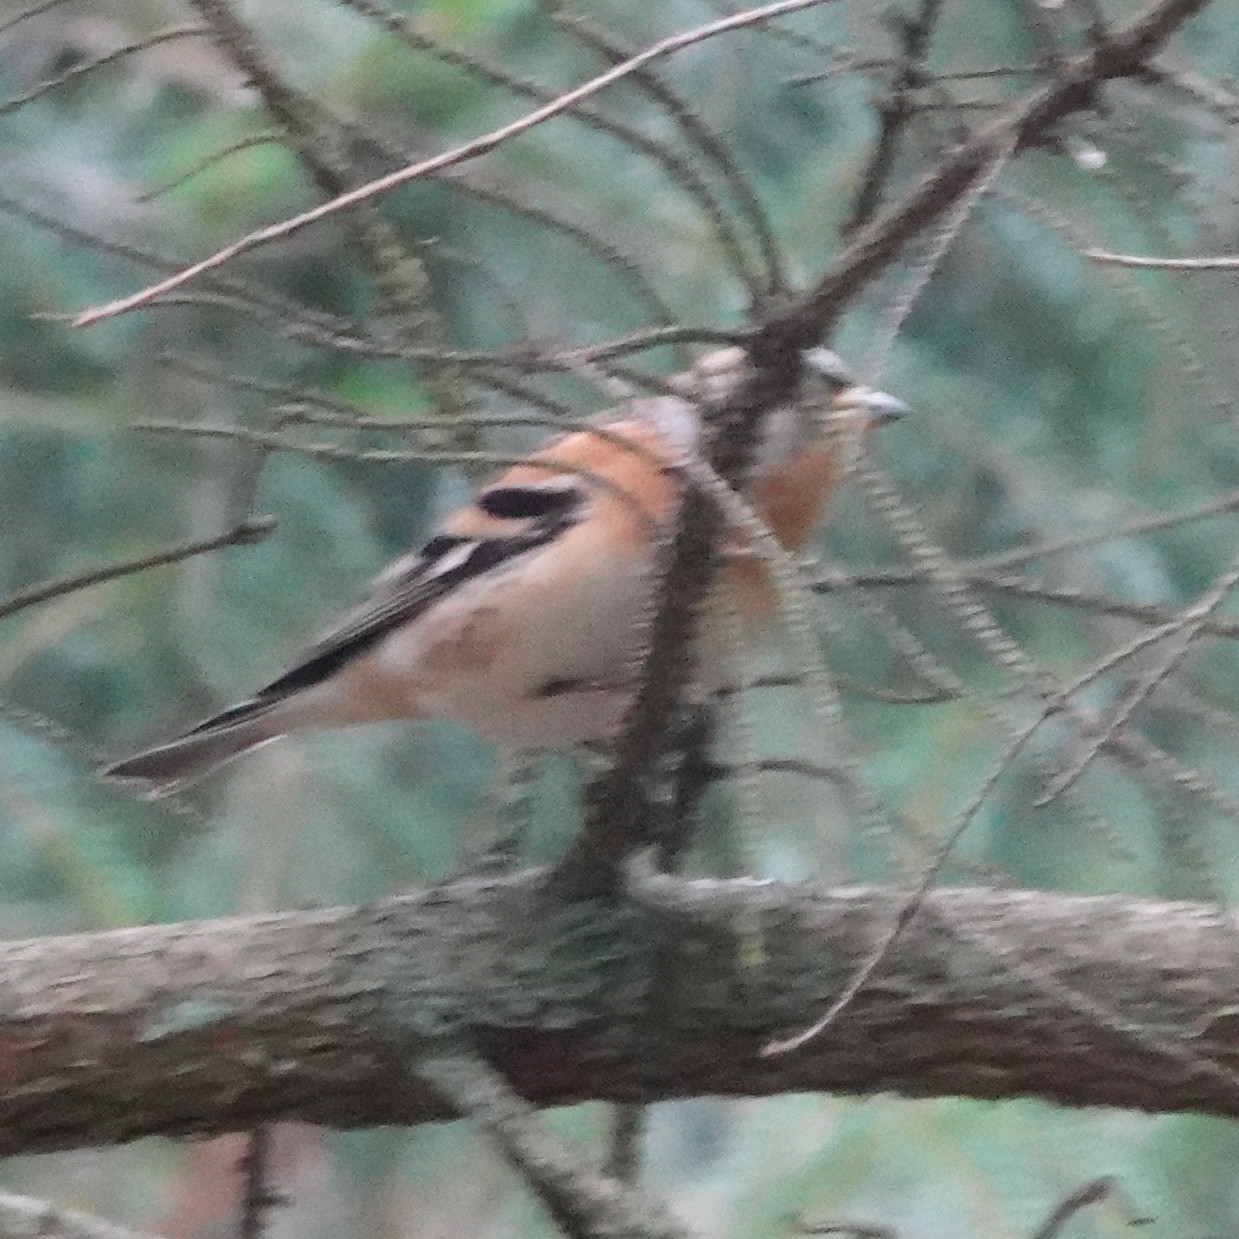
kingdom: Animalia
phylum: Chordata
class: Aves
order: Passeriformes
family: Fringillidae
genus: Fringilla
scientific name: Fringilla montifringilla
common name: Brambling
